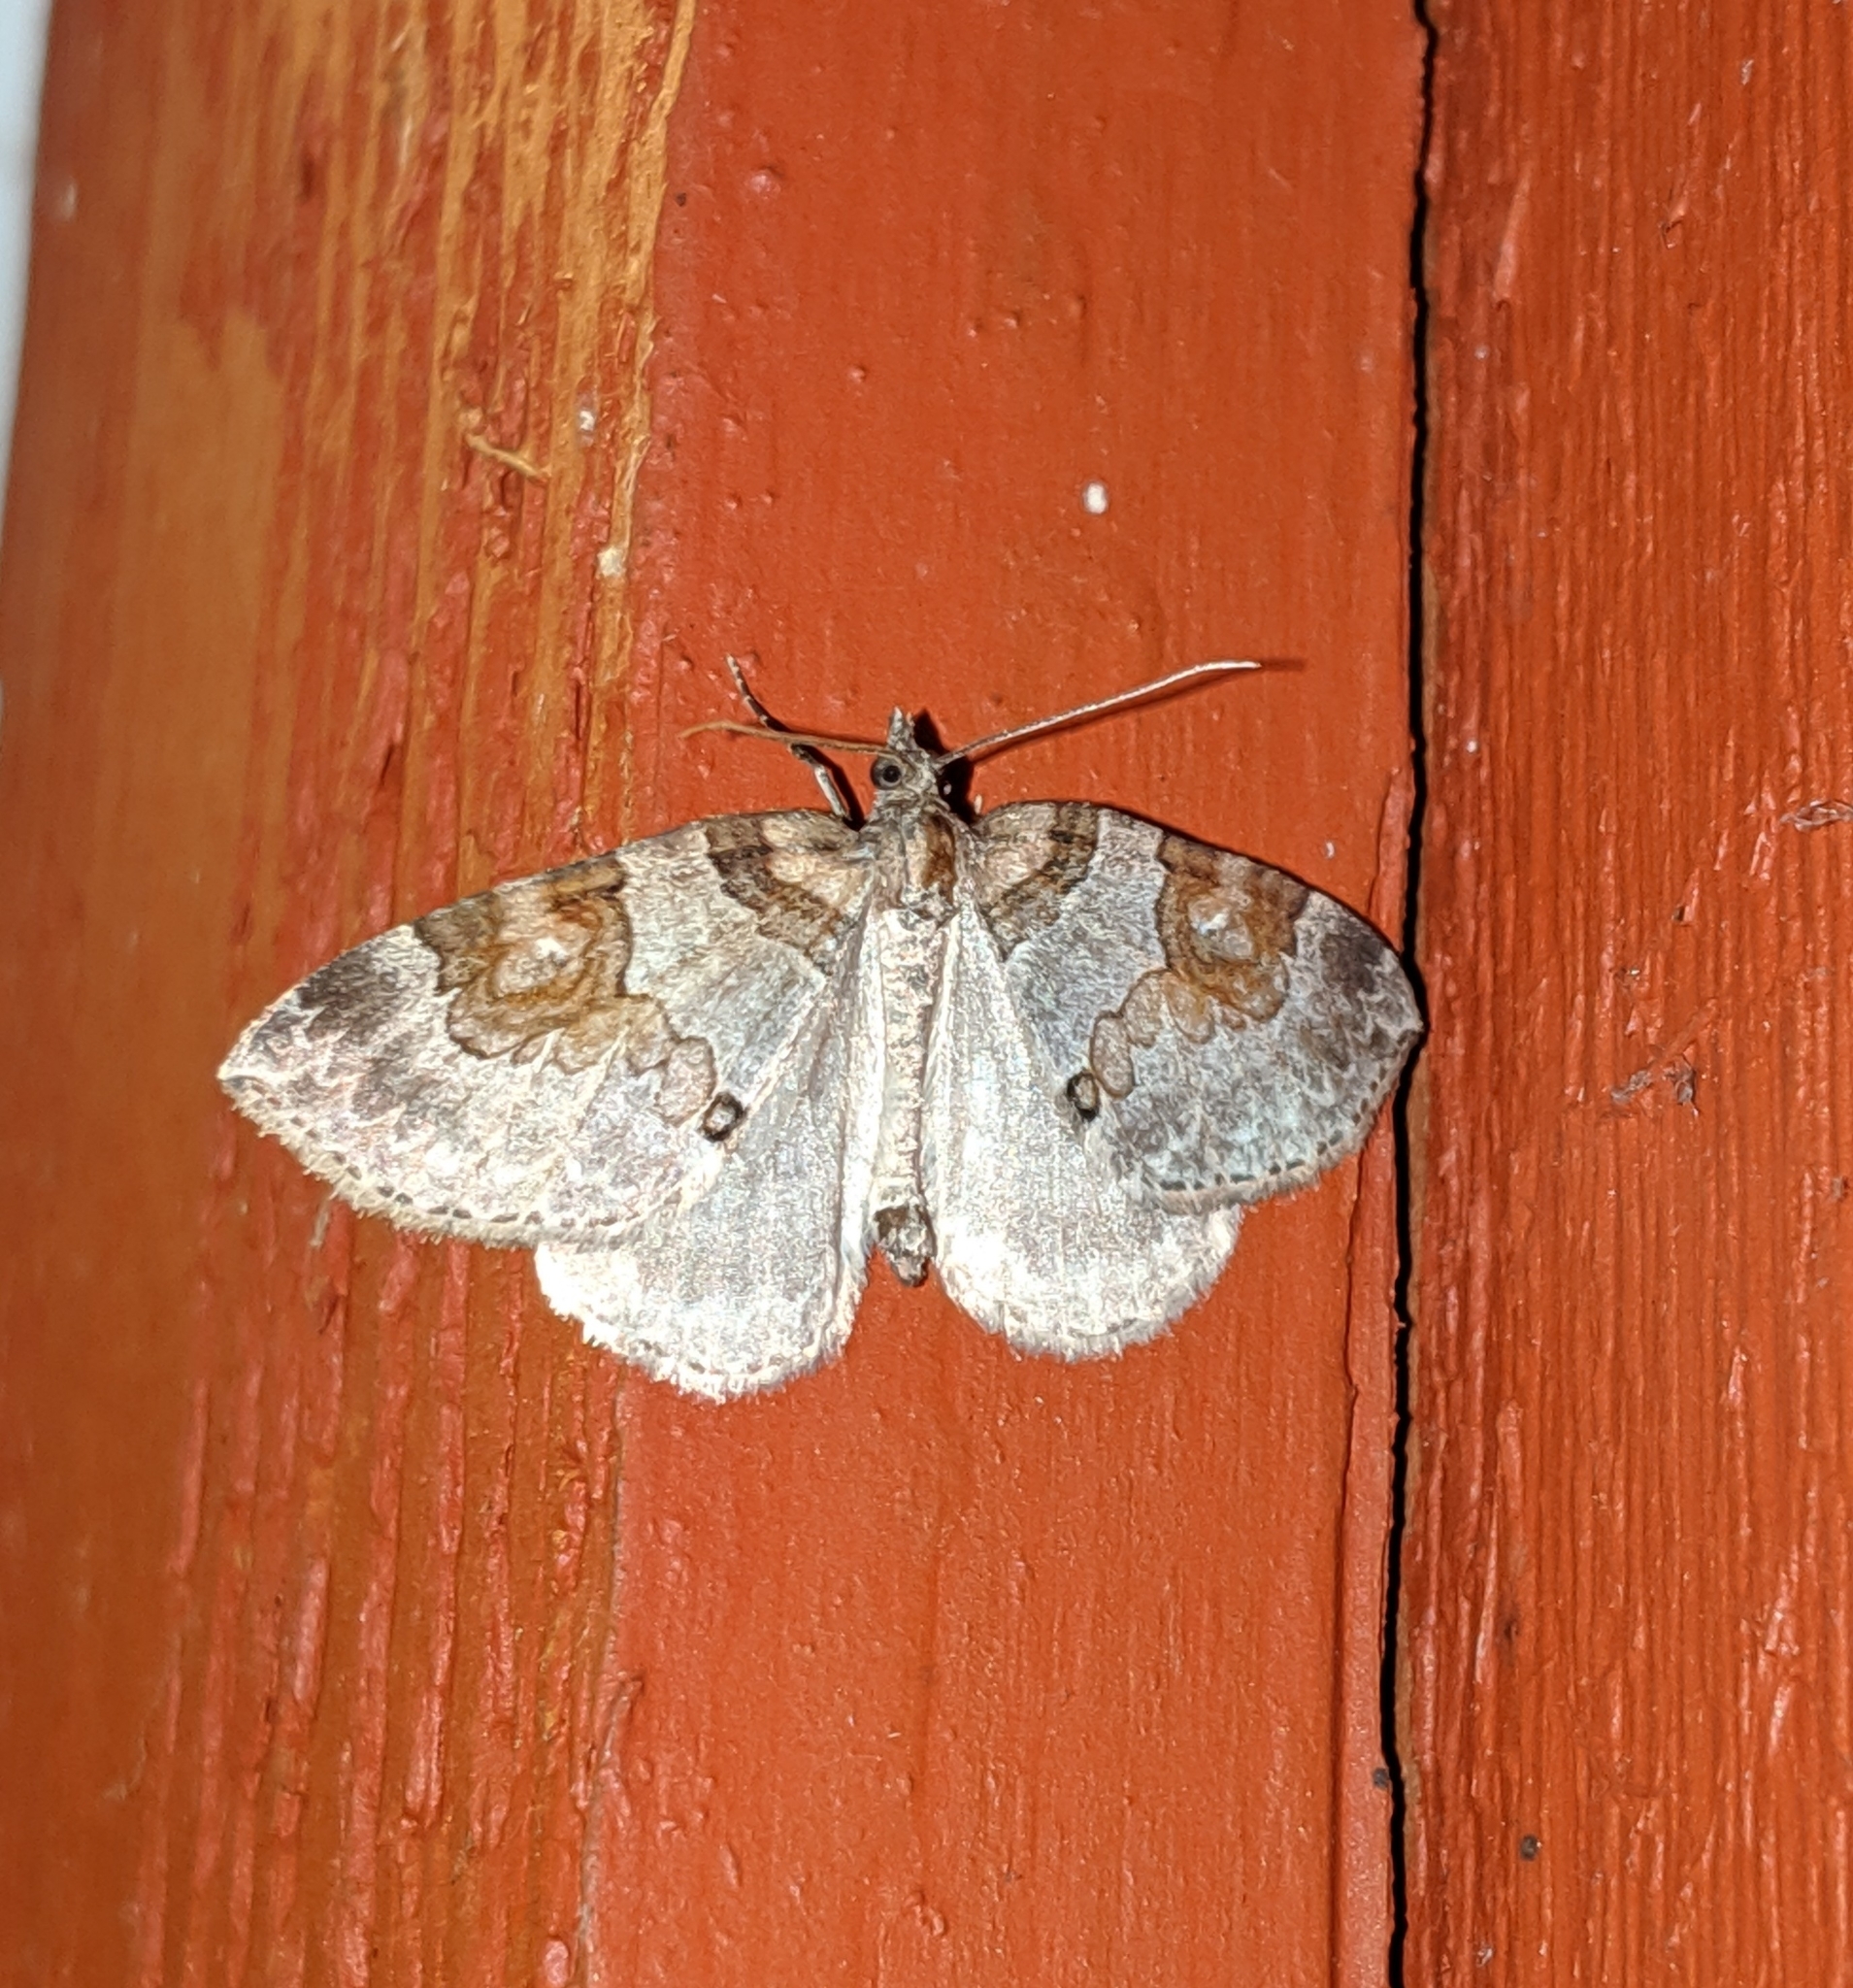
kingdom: Animalia
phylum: Arthropoda
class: Insecta
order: Lepidoptera
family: Geometridae
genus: Plemyria
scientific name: Plemyria georgii
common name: George's carpet moth
